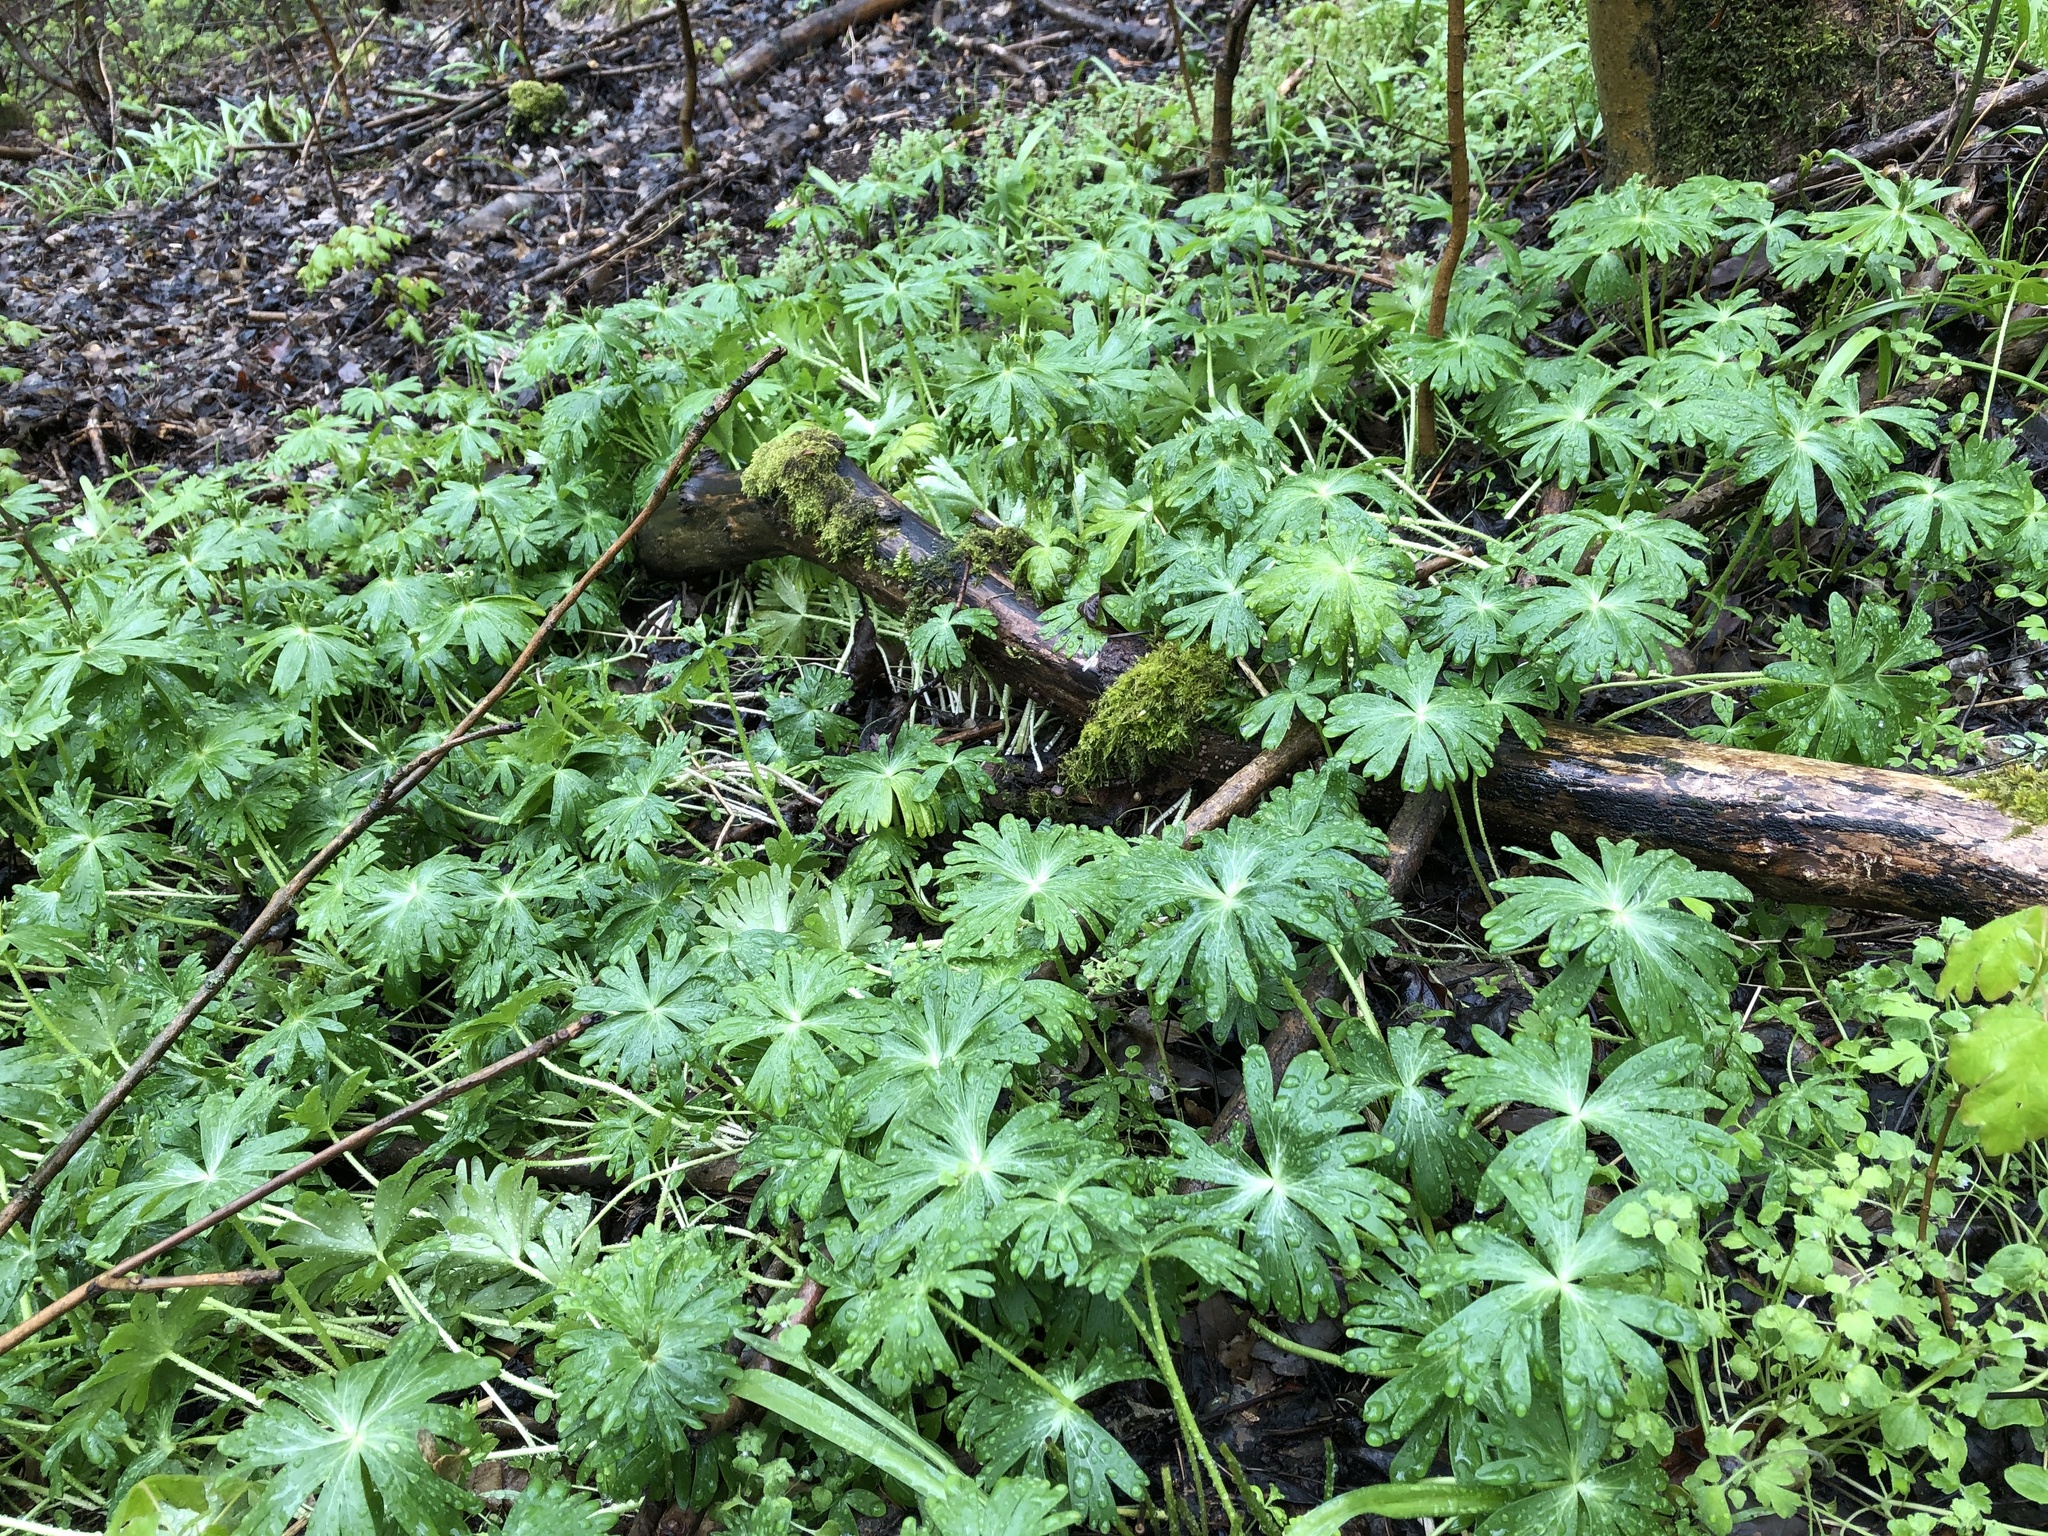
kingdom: Plantae
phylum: Tracheophyta
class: Magnoliopsida
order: Ranunculales
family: Ranunculaceae
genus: Eranthis
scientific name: Eranthis hyemalis
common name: Winter aconite
